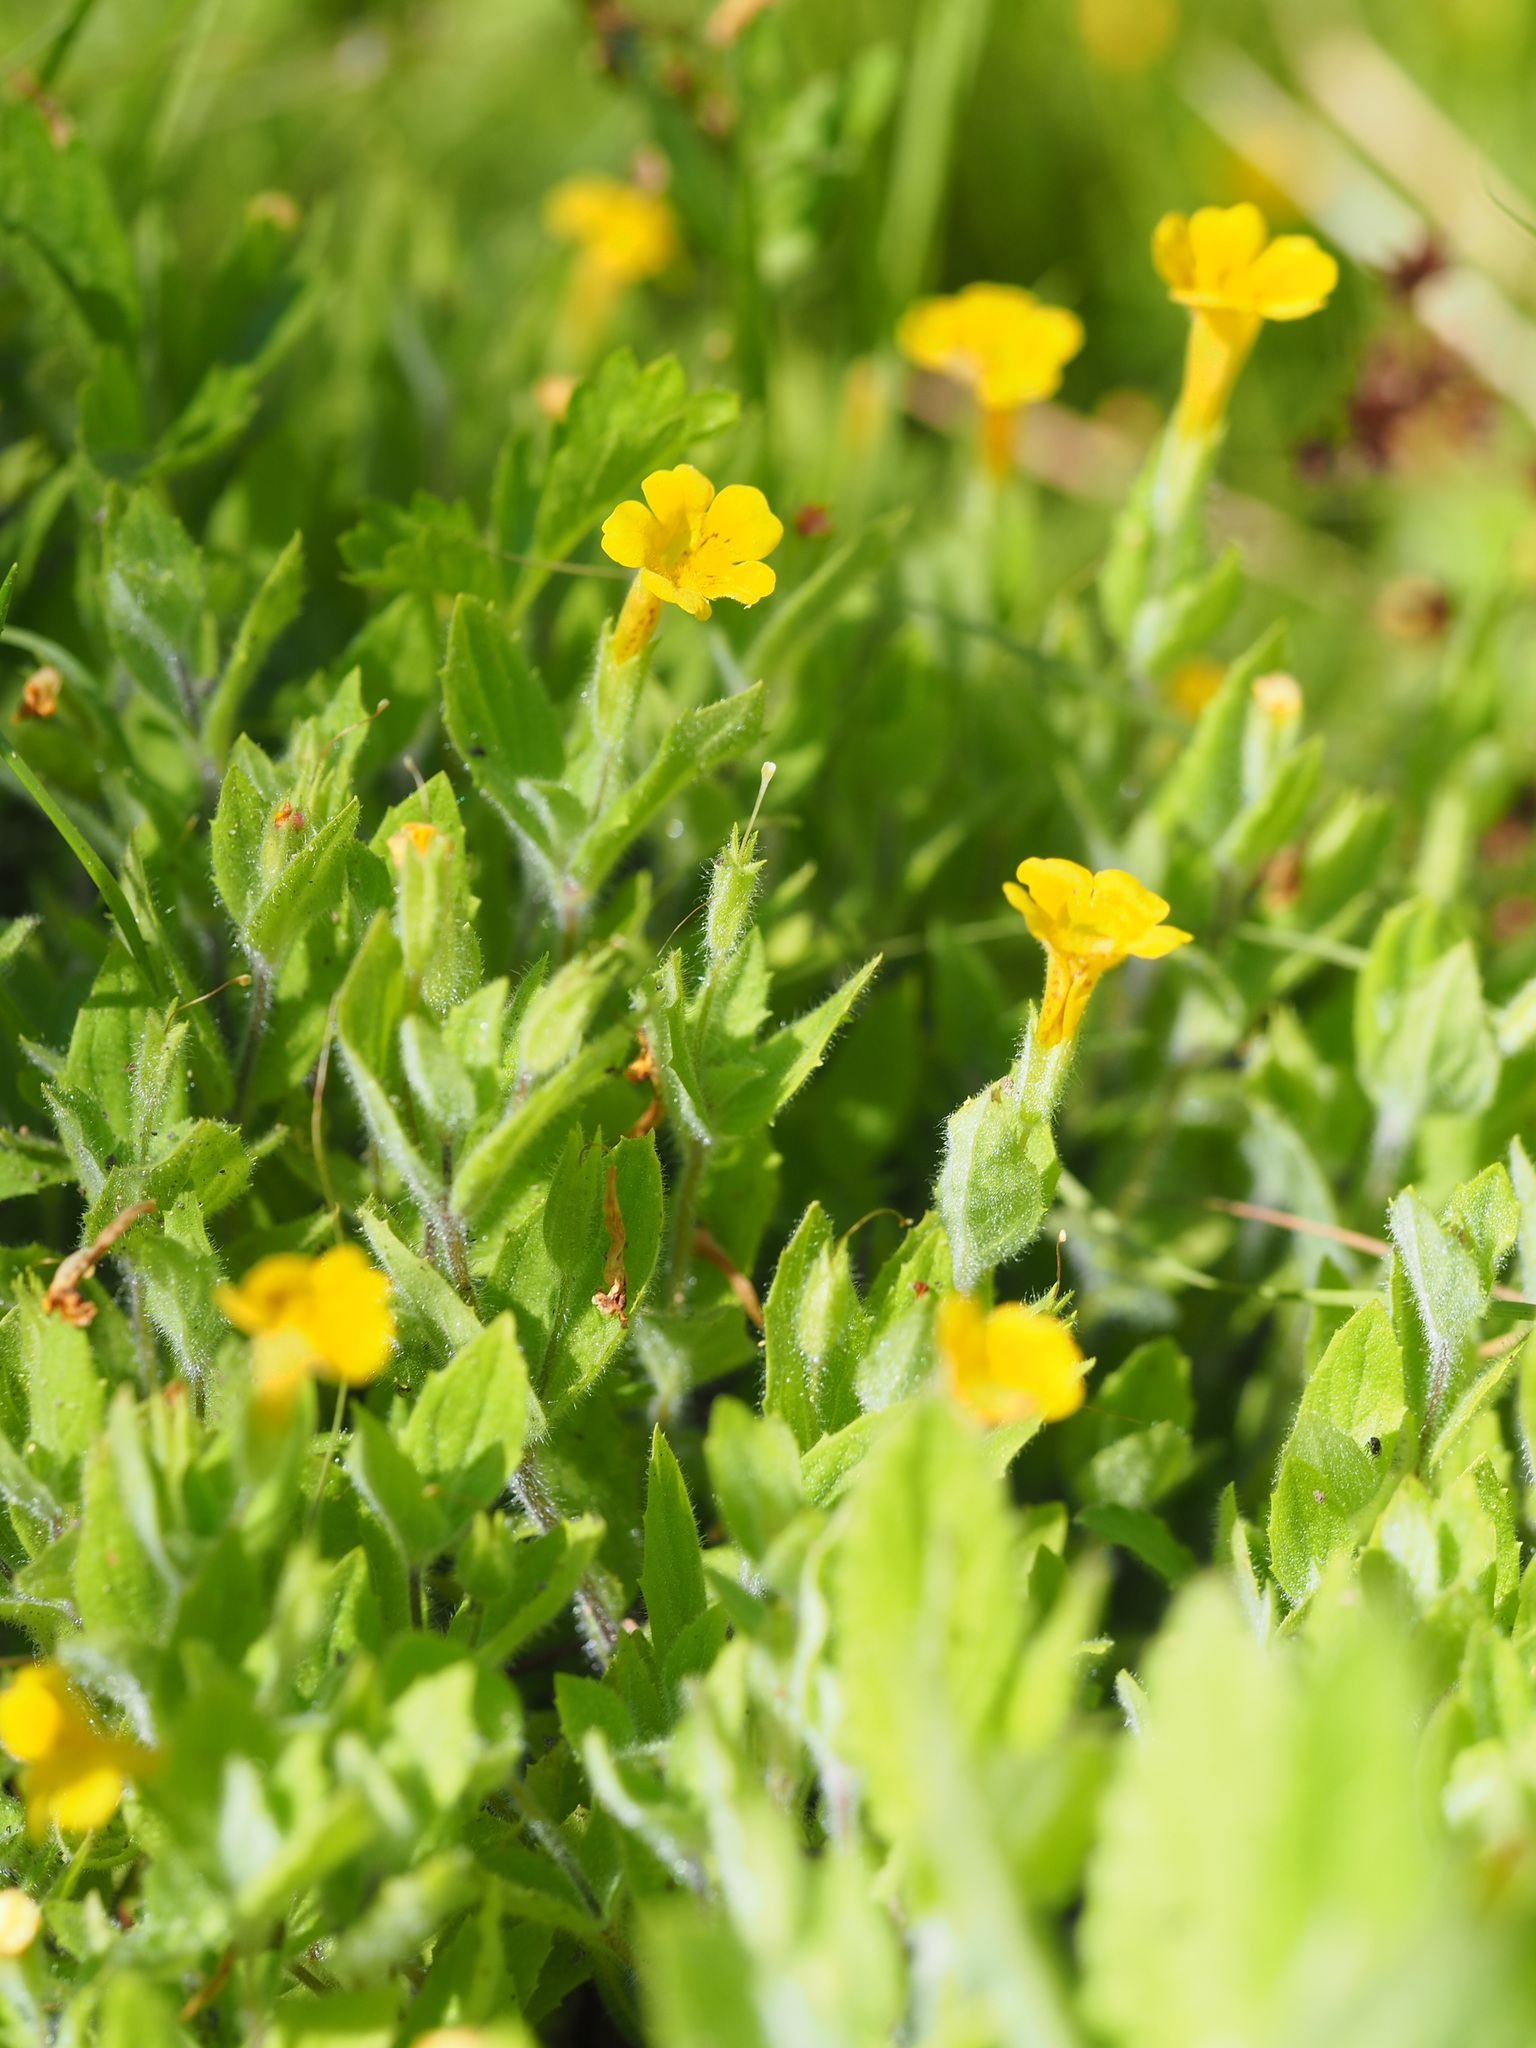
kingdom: Plantae
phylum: Tracheophyta
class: Magnoliopsida
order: Lamiales
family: Phrymaceae
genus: Erythranthe
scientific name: Erythranthe moschata
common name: Muskflower
